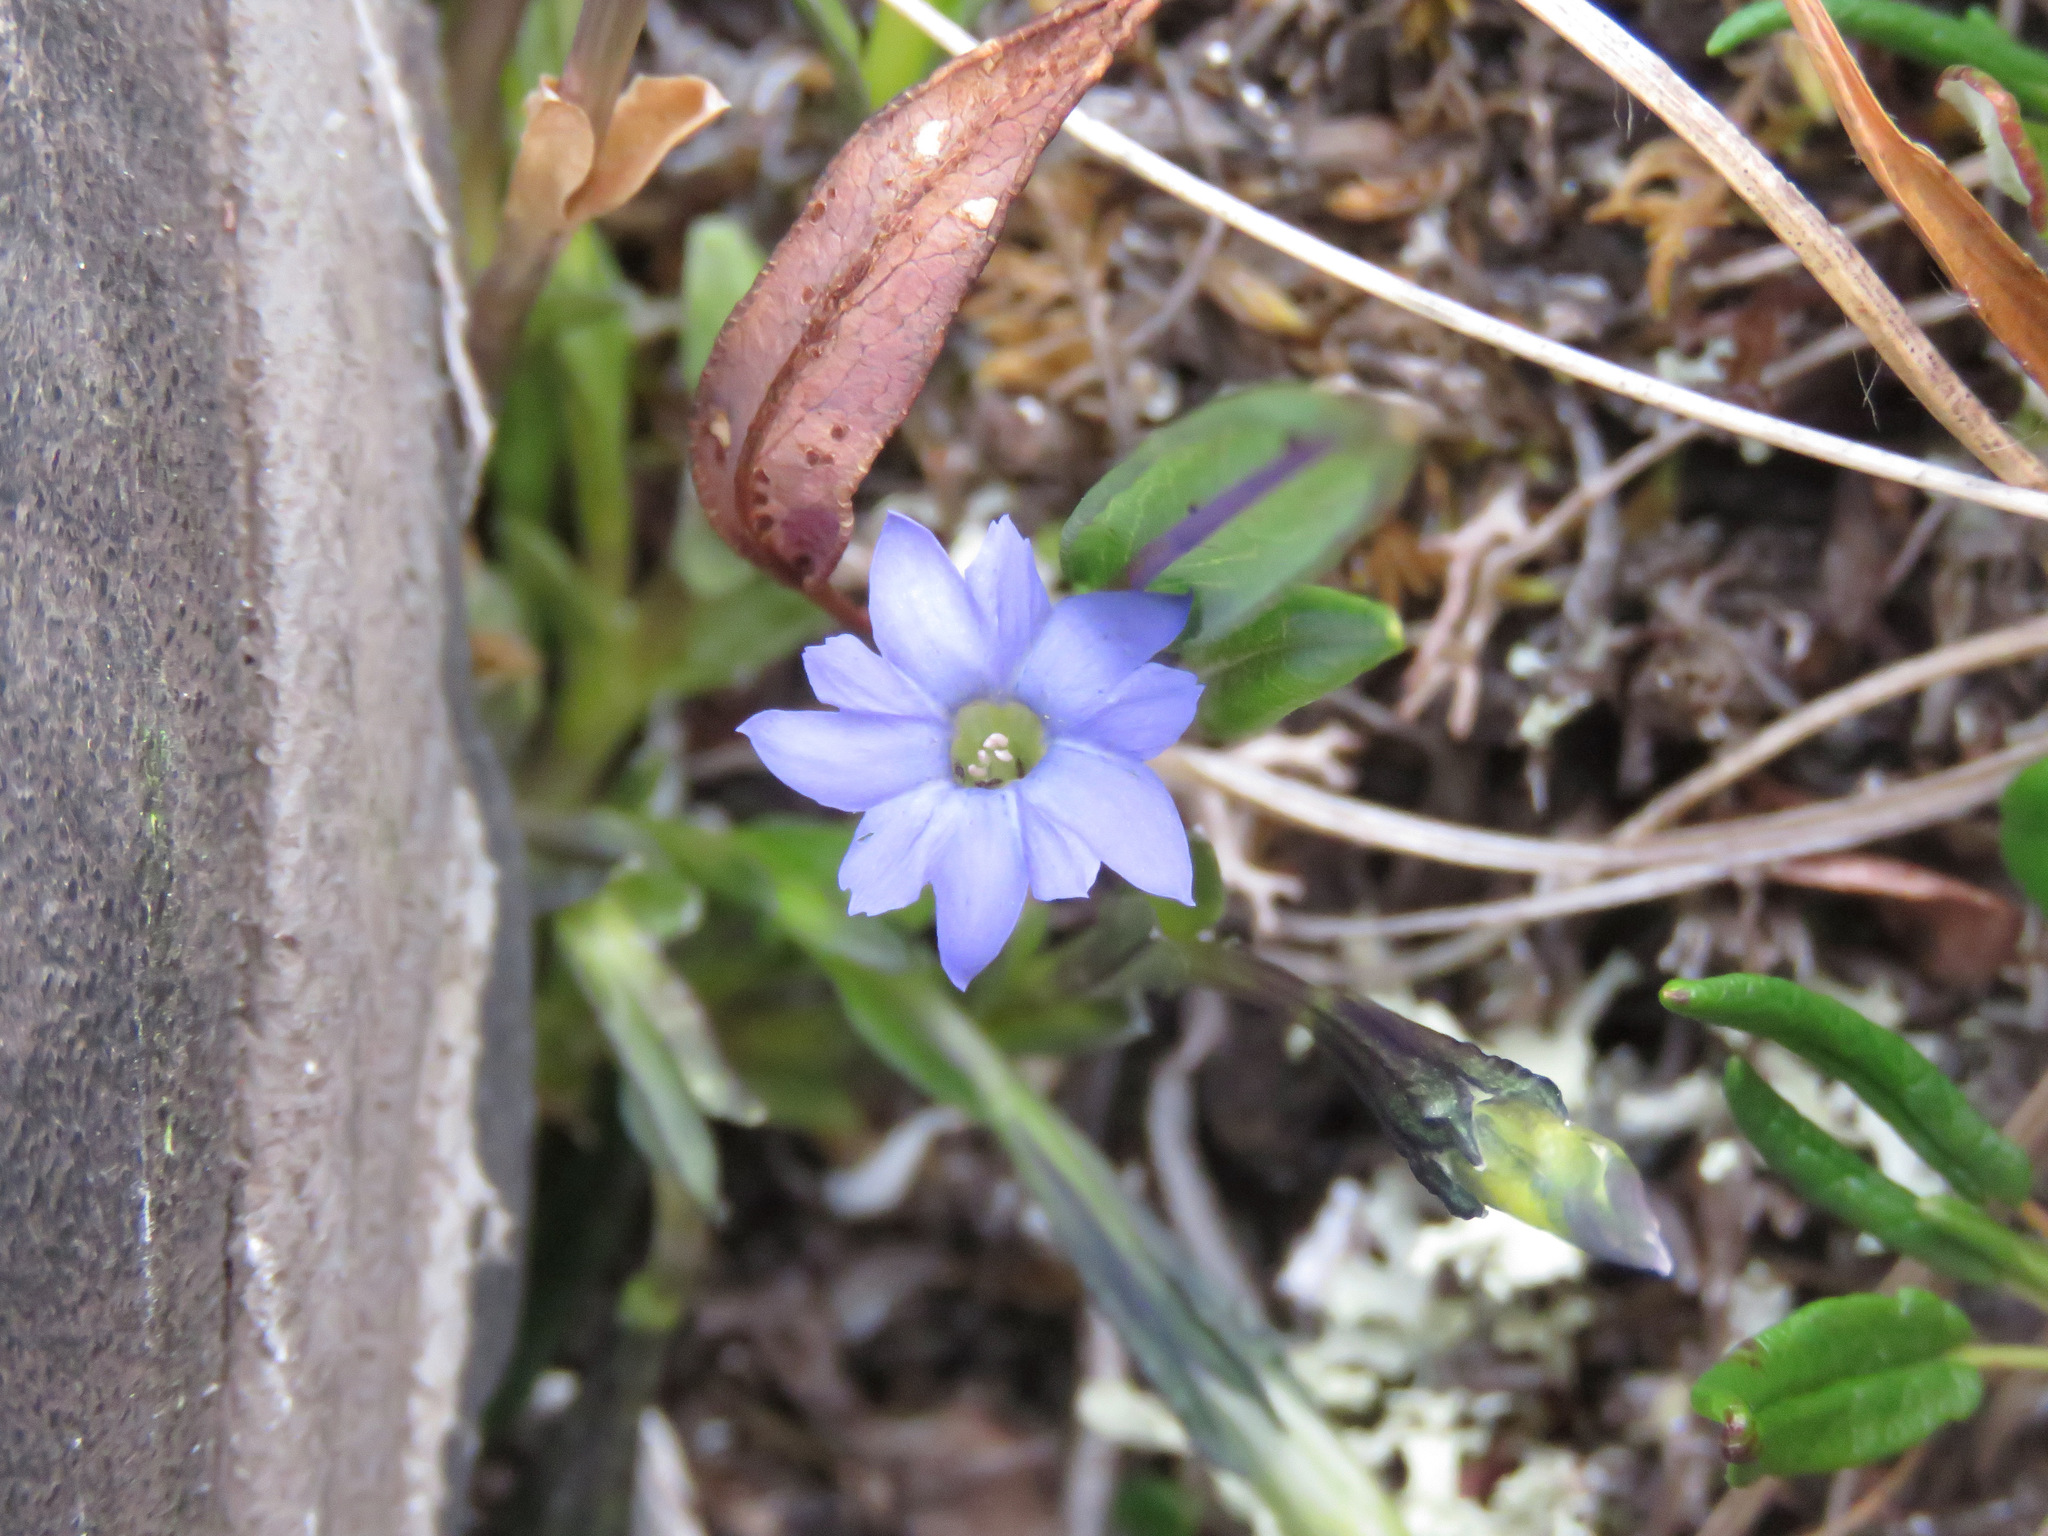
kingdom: Plantae
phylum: Tracheophyta
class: Magnoliopsida
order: Gentianales
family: Gentianaceae
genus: Gentiana
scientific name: Gentiana prostrata
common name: Moss gentian
